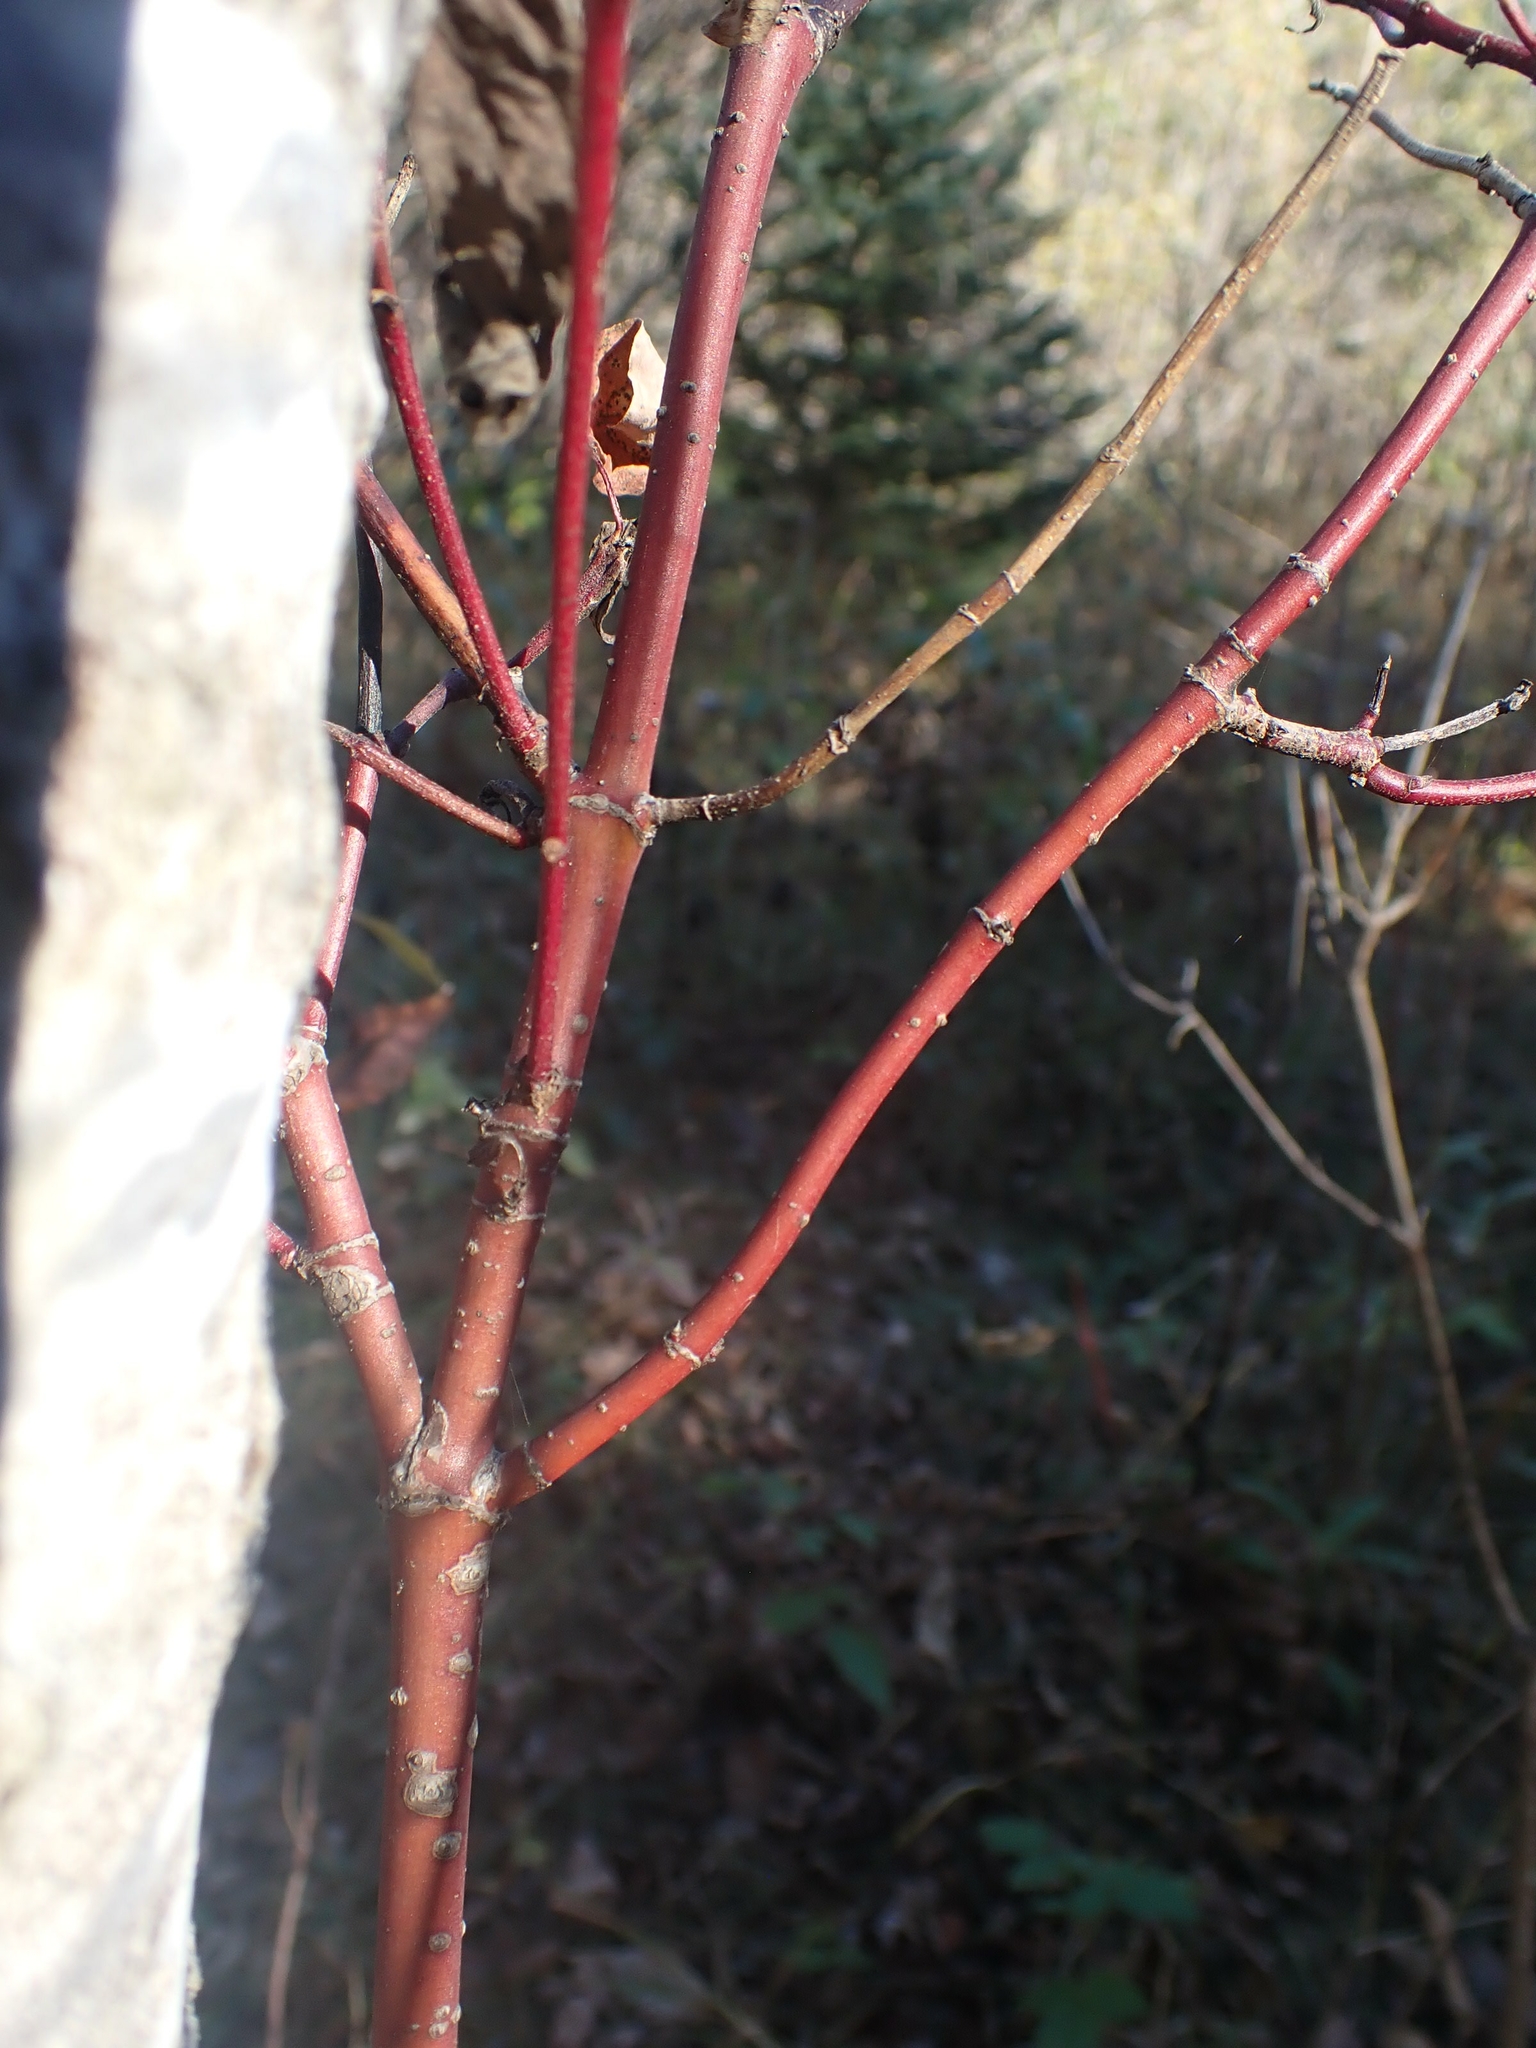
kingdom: Plantae
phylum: Tracheophyta
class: Magnoliopsida
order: Cornales
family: Cornaceae
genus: Cornus
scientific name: Cornus sericea
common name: Red-osier dogwood
